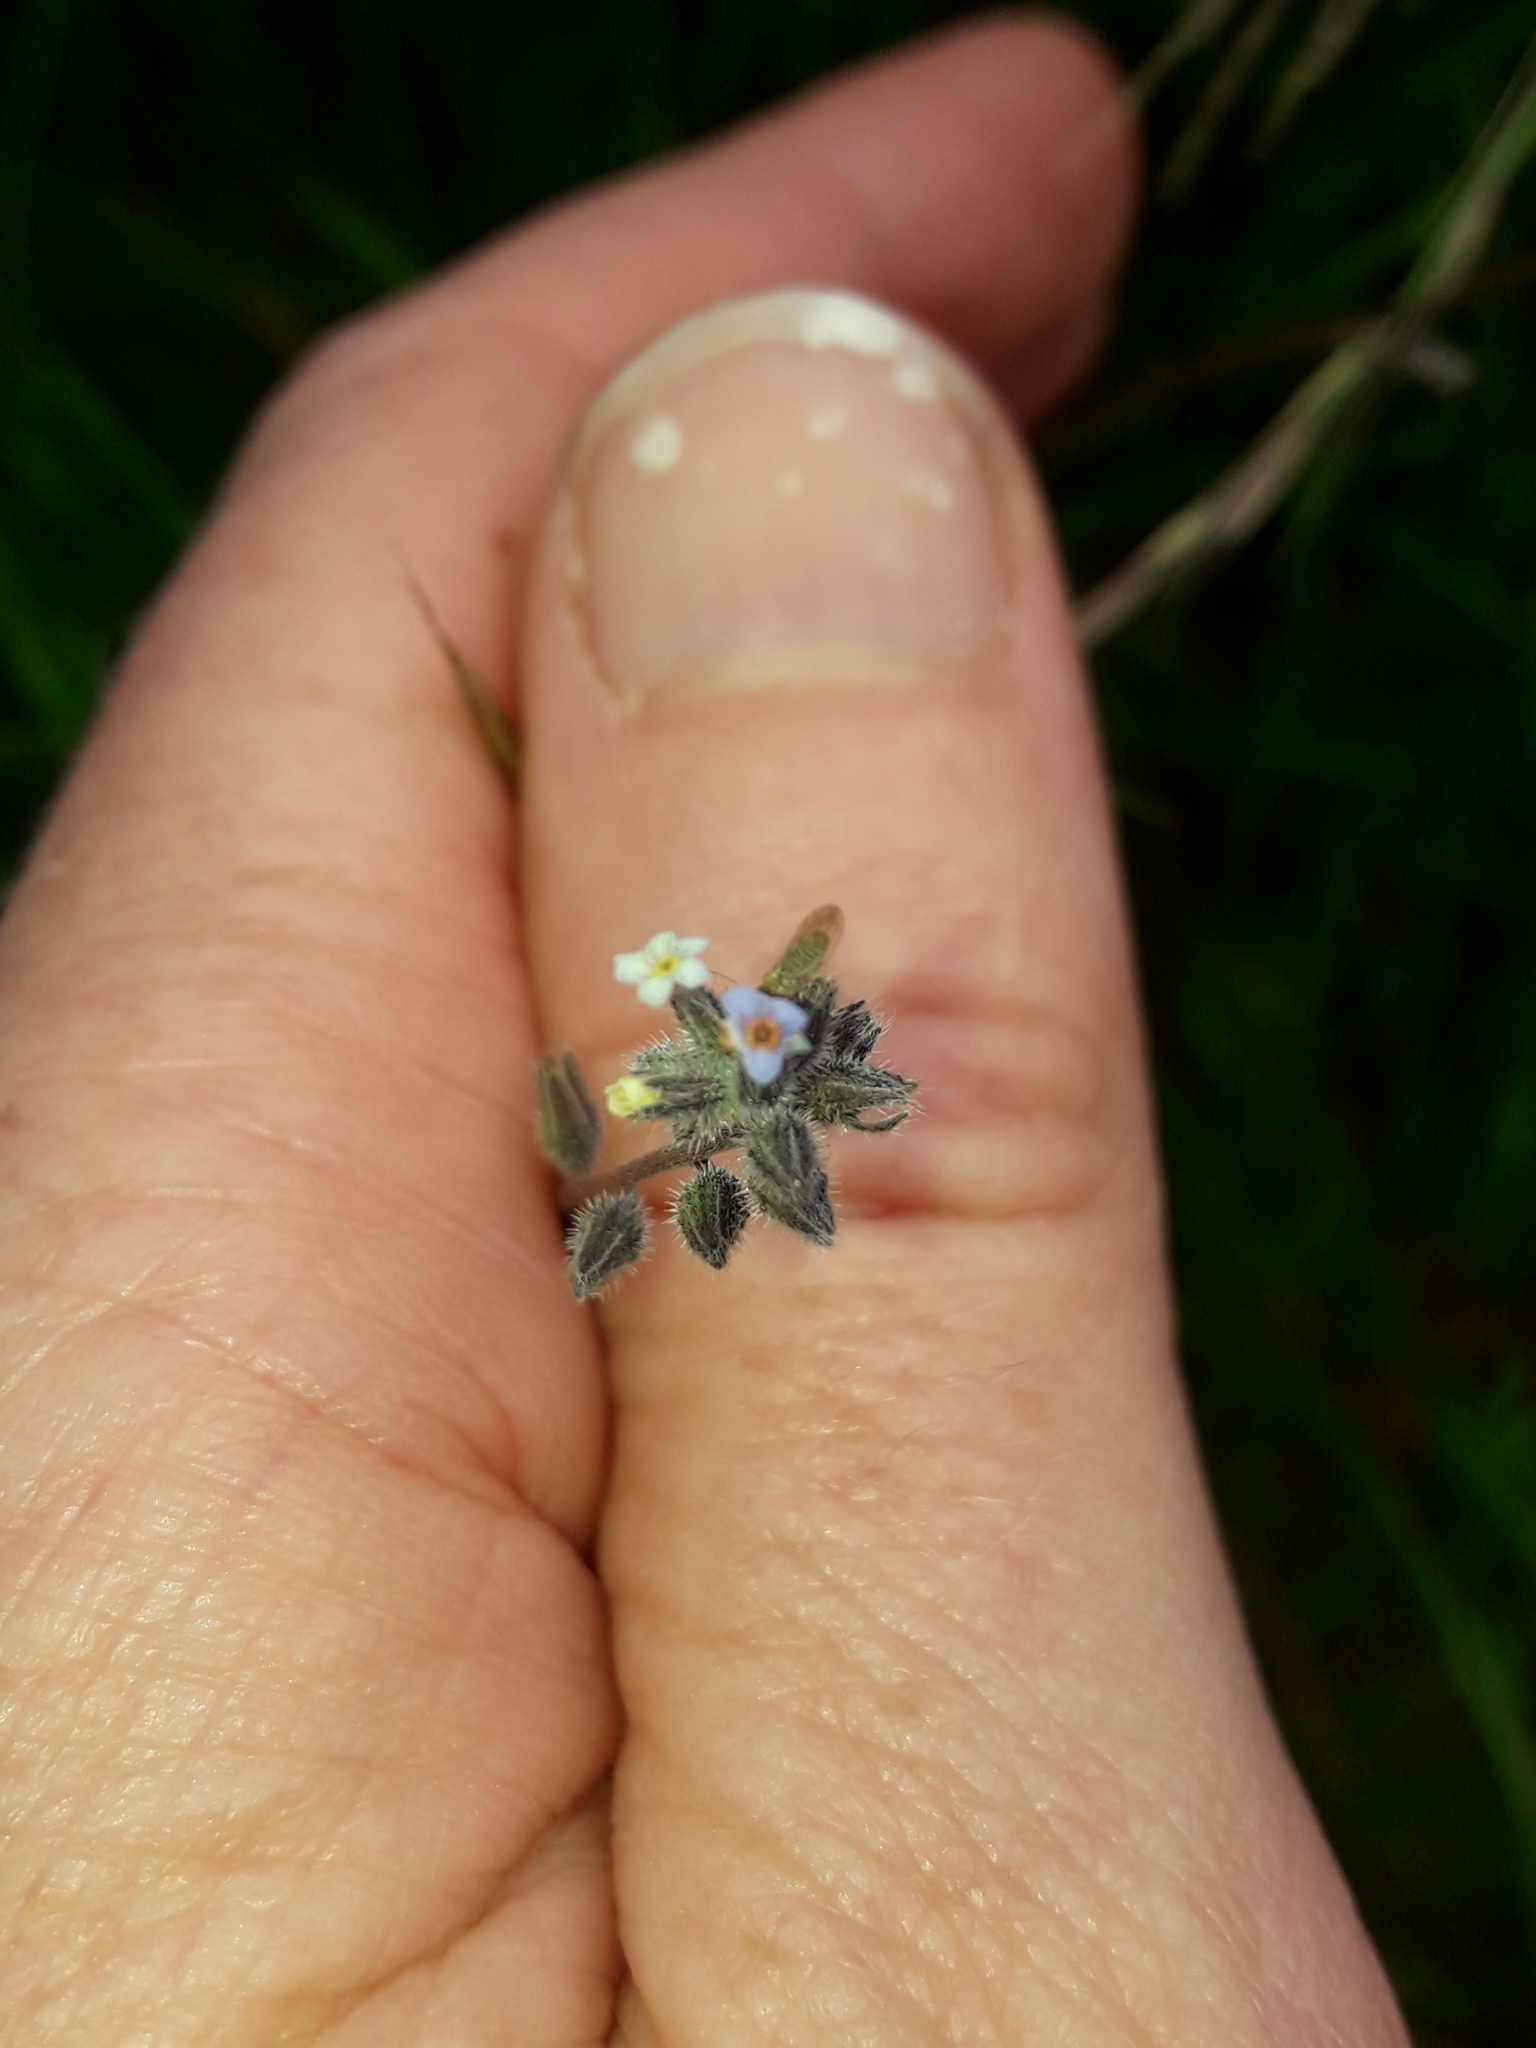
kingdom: Plantae
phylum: Tracheophyta
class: Magnoliopsida
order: Boraginales
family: Boraginaceae
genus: Myosotis
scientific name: Myosotis discolor
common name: Changing forget-me-not
